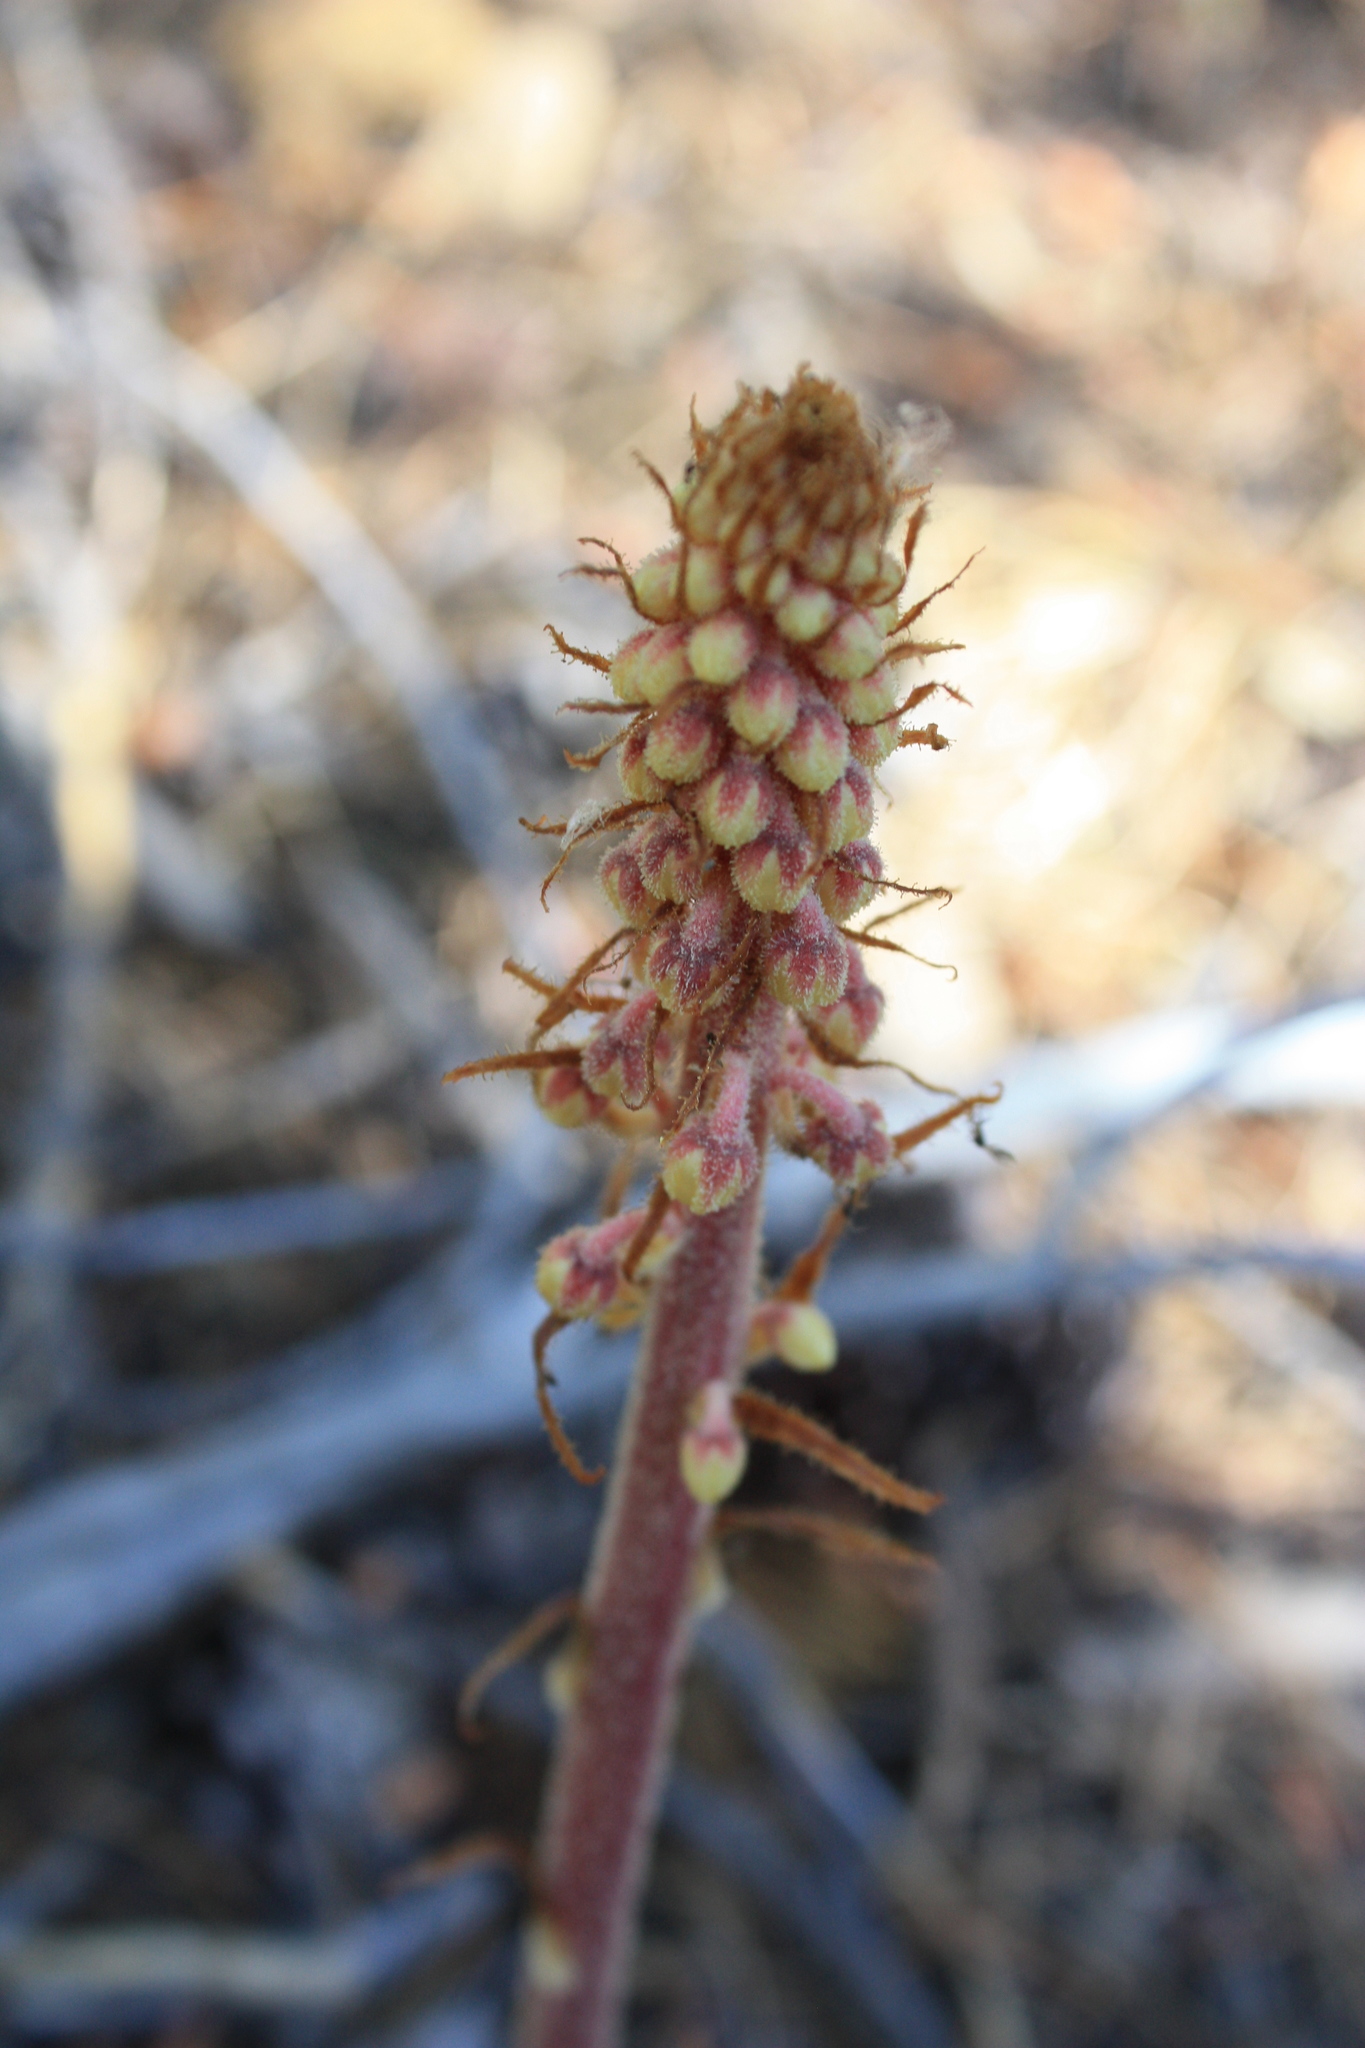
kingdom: Plantae
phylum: Tracheophyta
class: Magnoliopsida
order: Ericales
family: Ericaceae
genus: Pterospora
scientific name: Pterospora andromedea
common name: Giant bird's-nest
